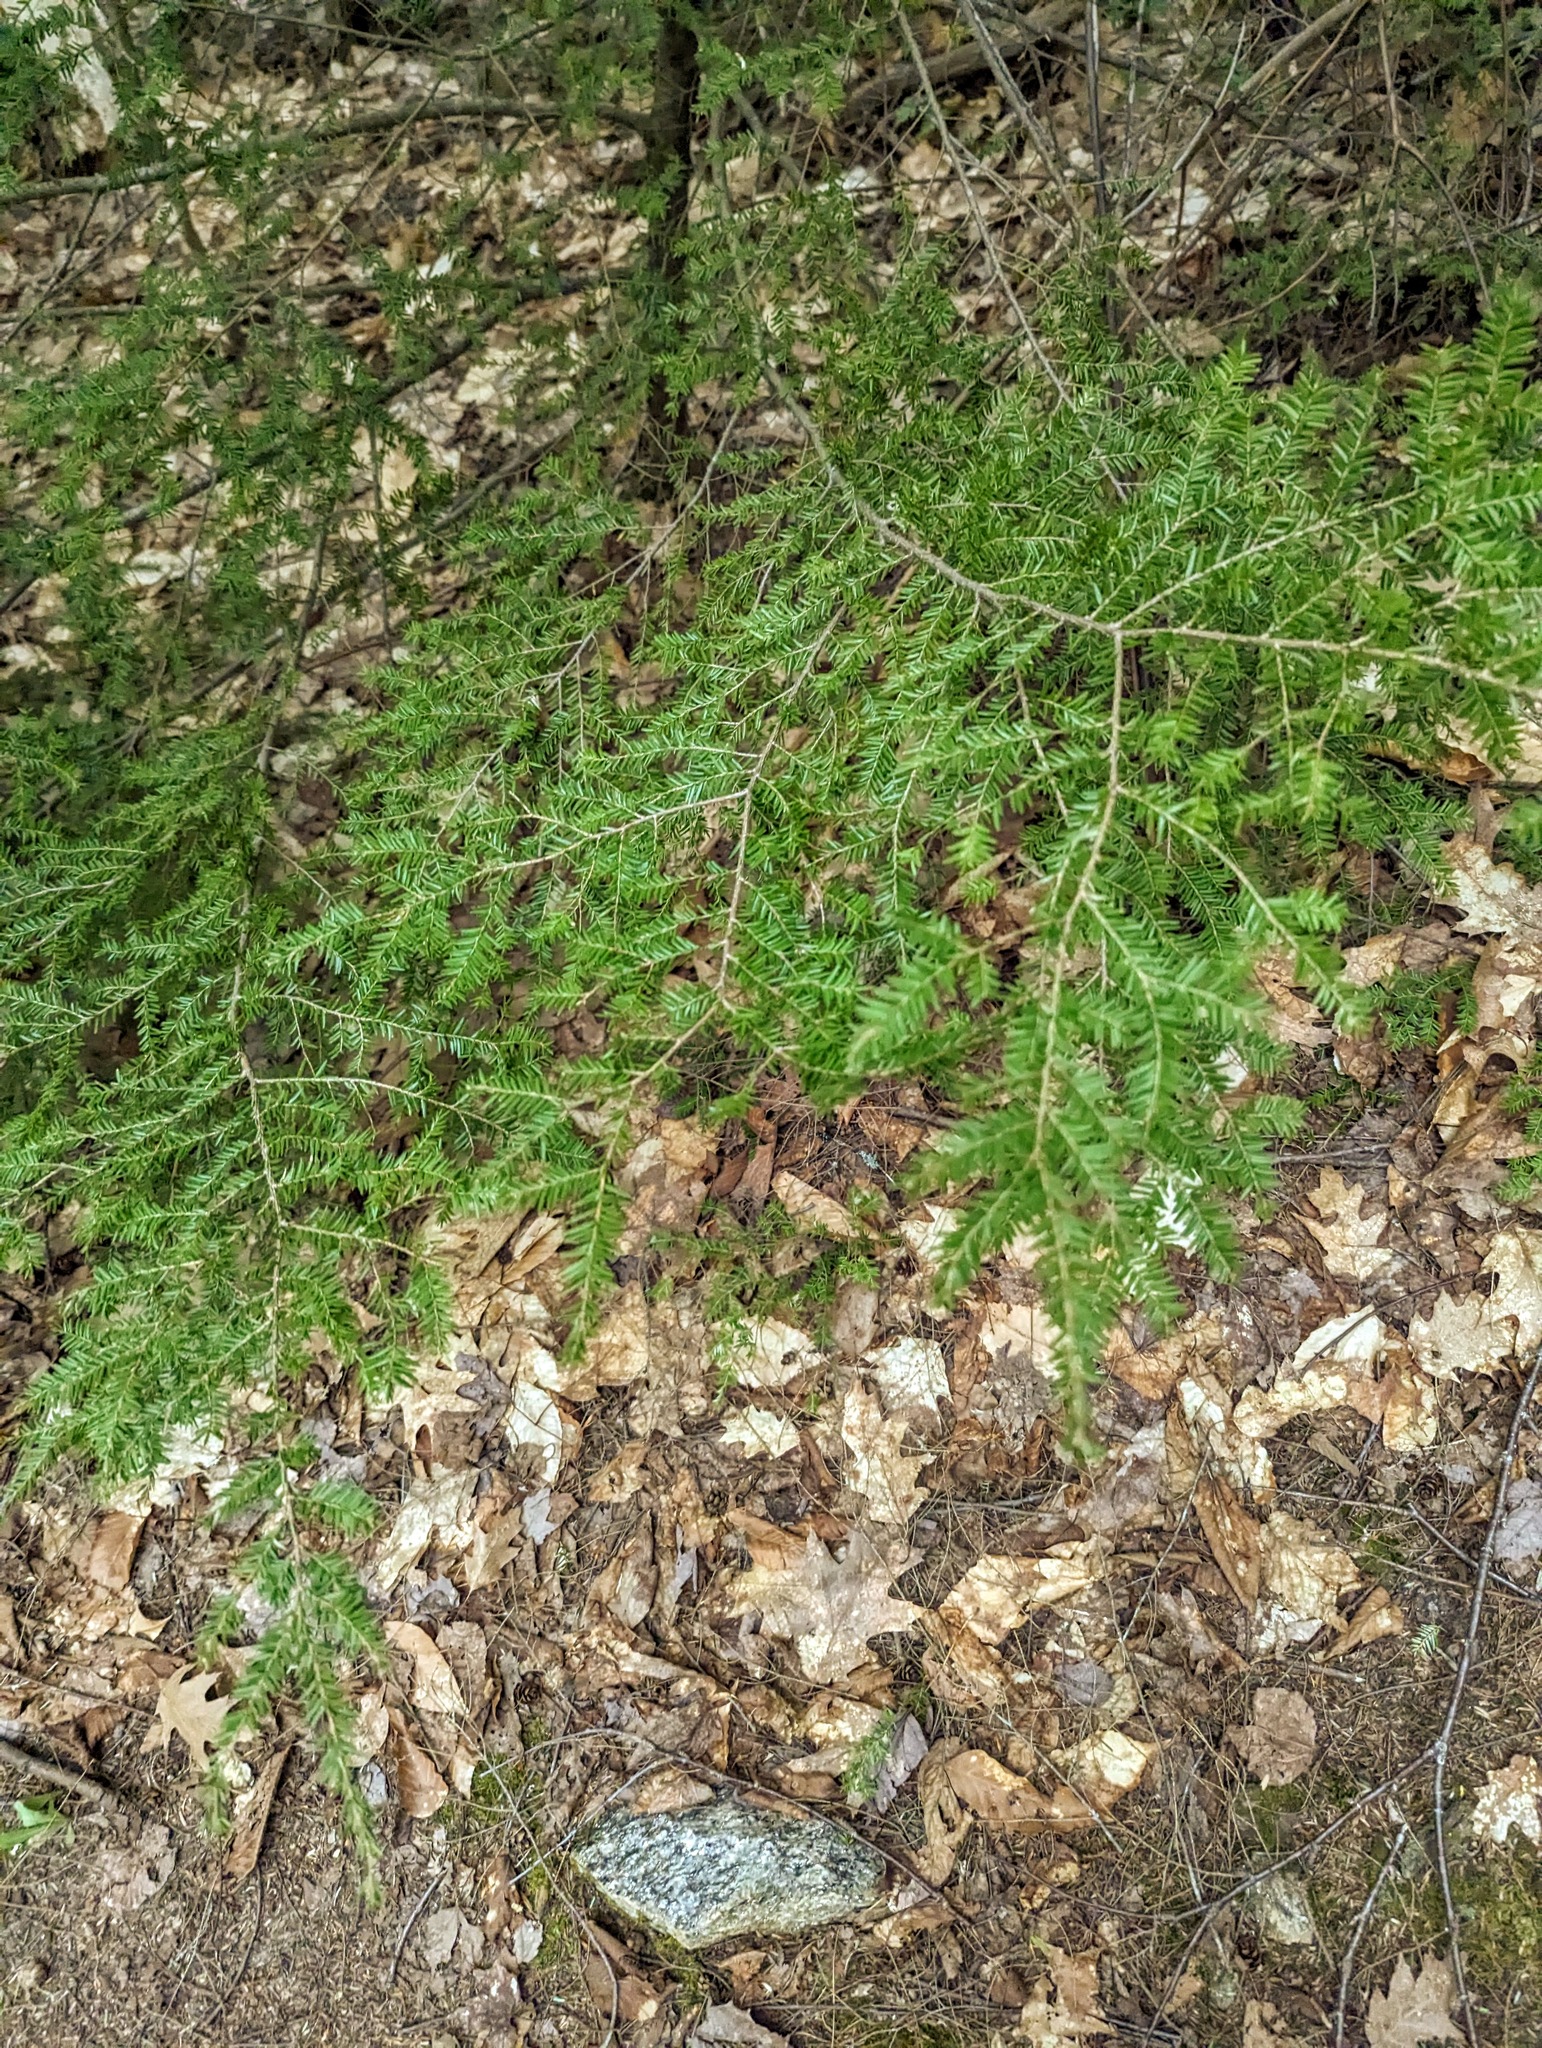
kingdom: Plantae
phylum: Tracheophyta
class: Pinopsida
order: Pinales
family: Pinaceae
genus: Tsuga
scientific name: Tsuga canadensis
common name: Eastern hemlock
